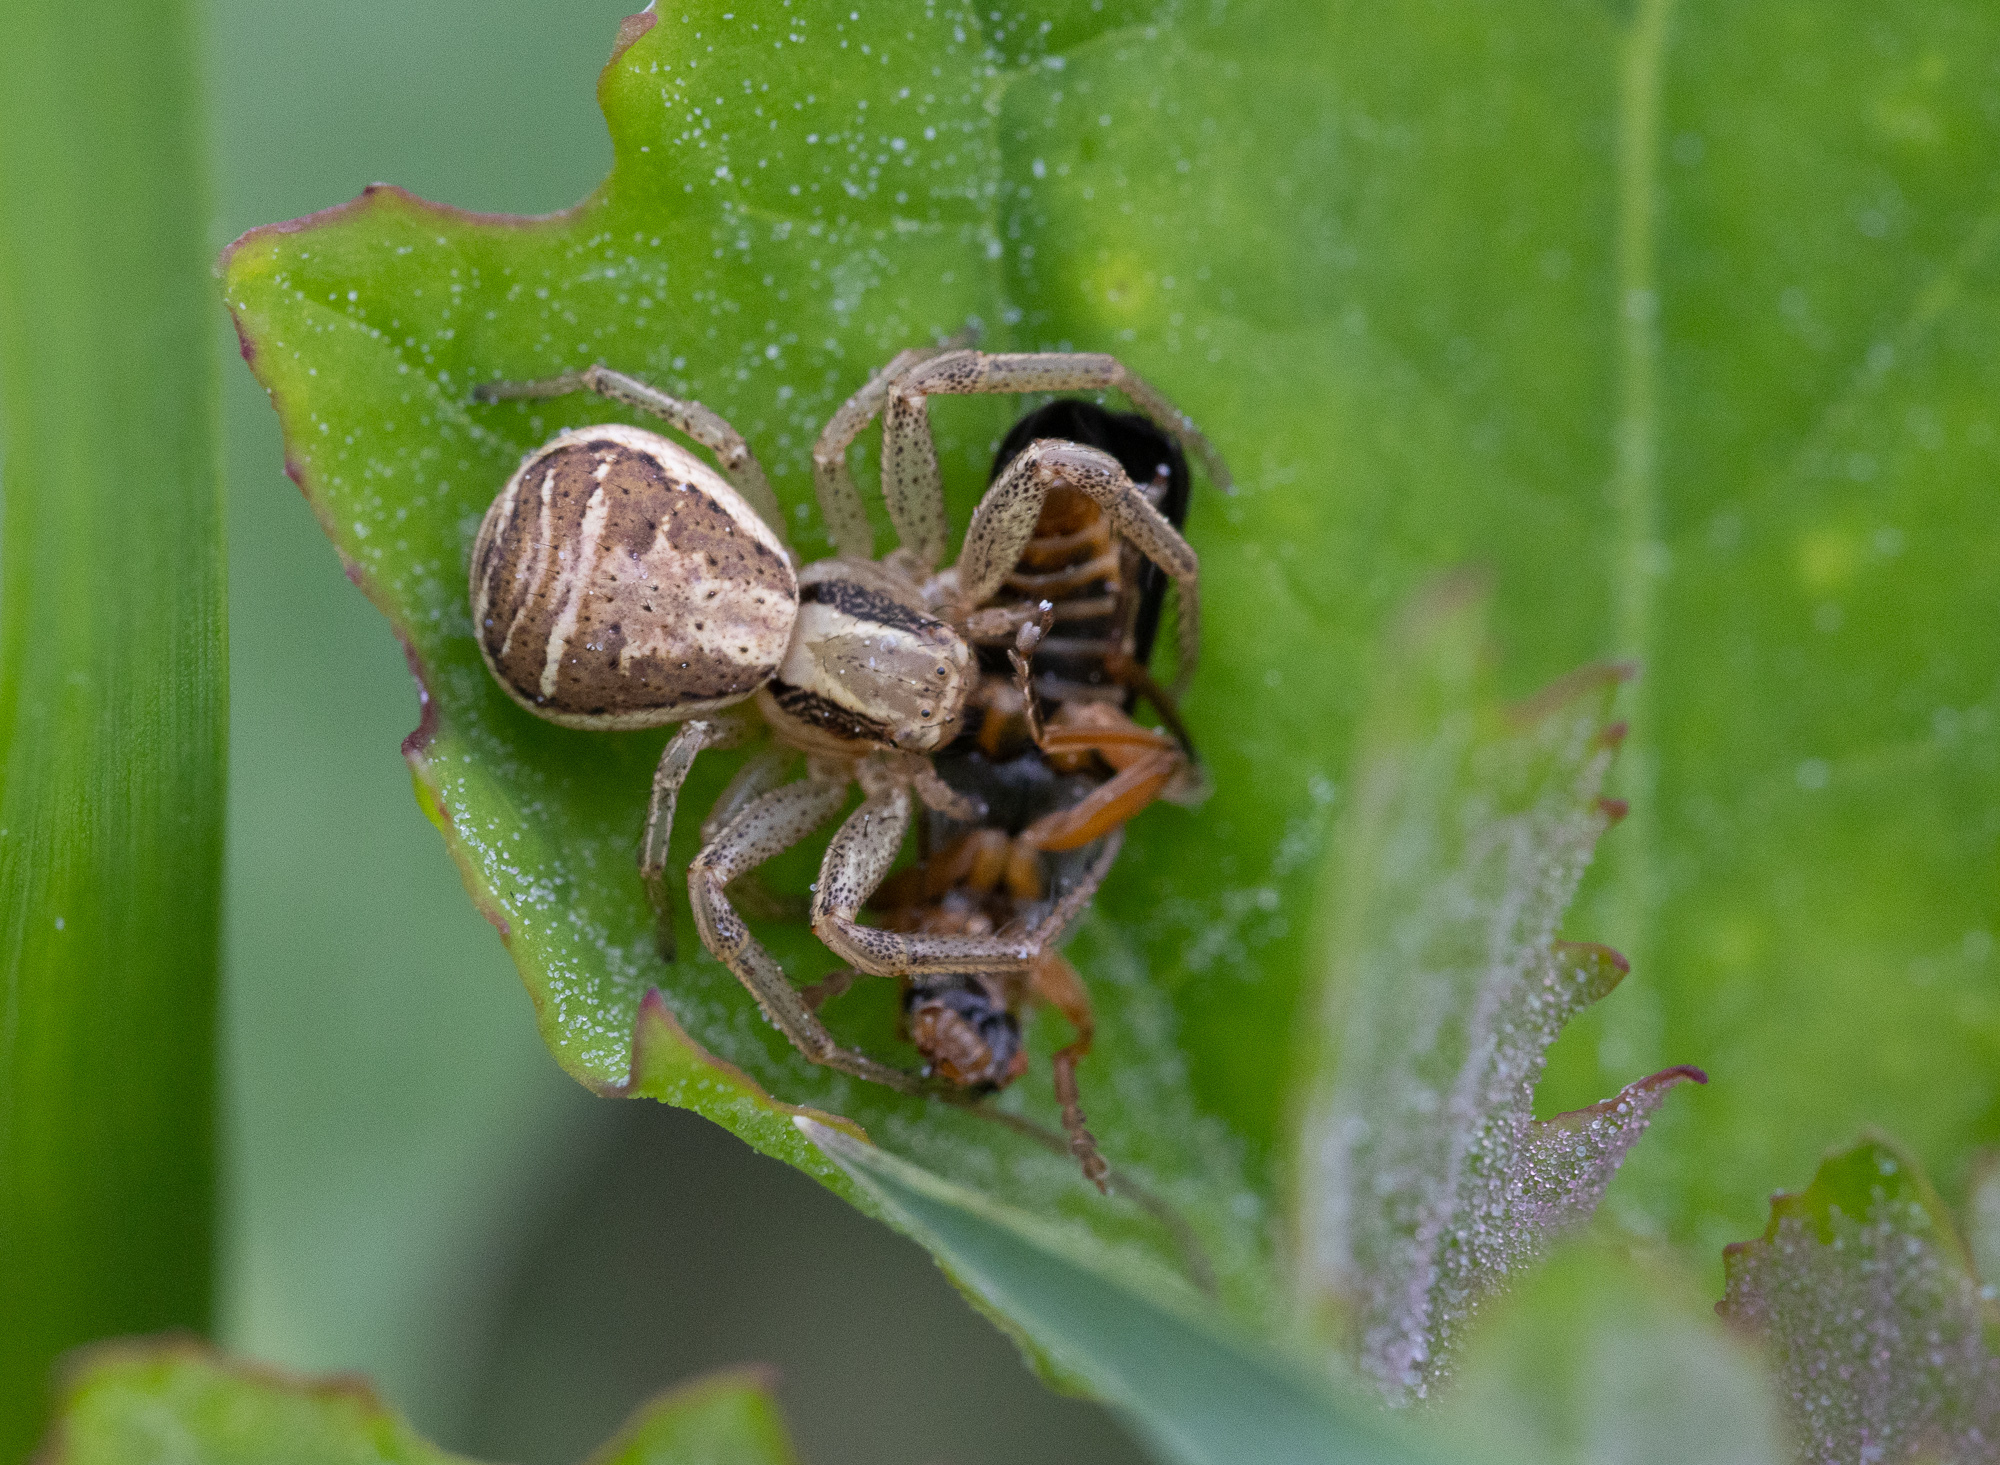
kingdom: Animalia
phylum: Arthropoda
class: Arachnida
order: Araneae
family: Thomisidae
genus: Xysticus
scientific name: Xysticus ulmi
